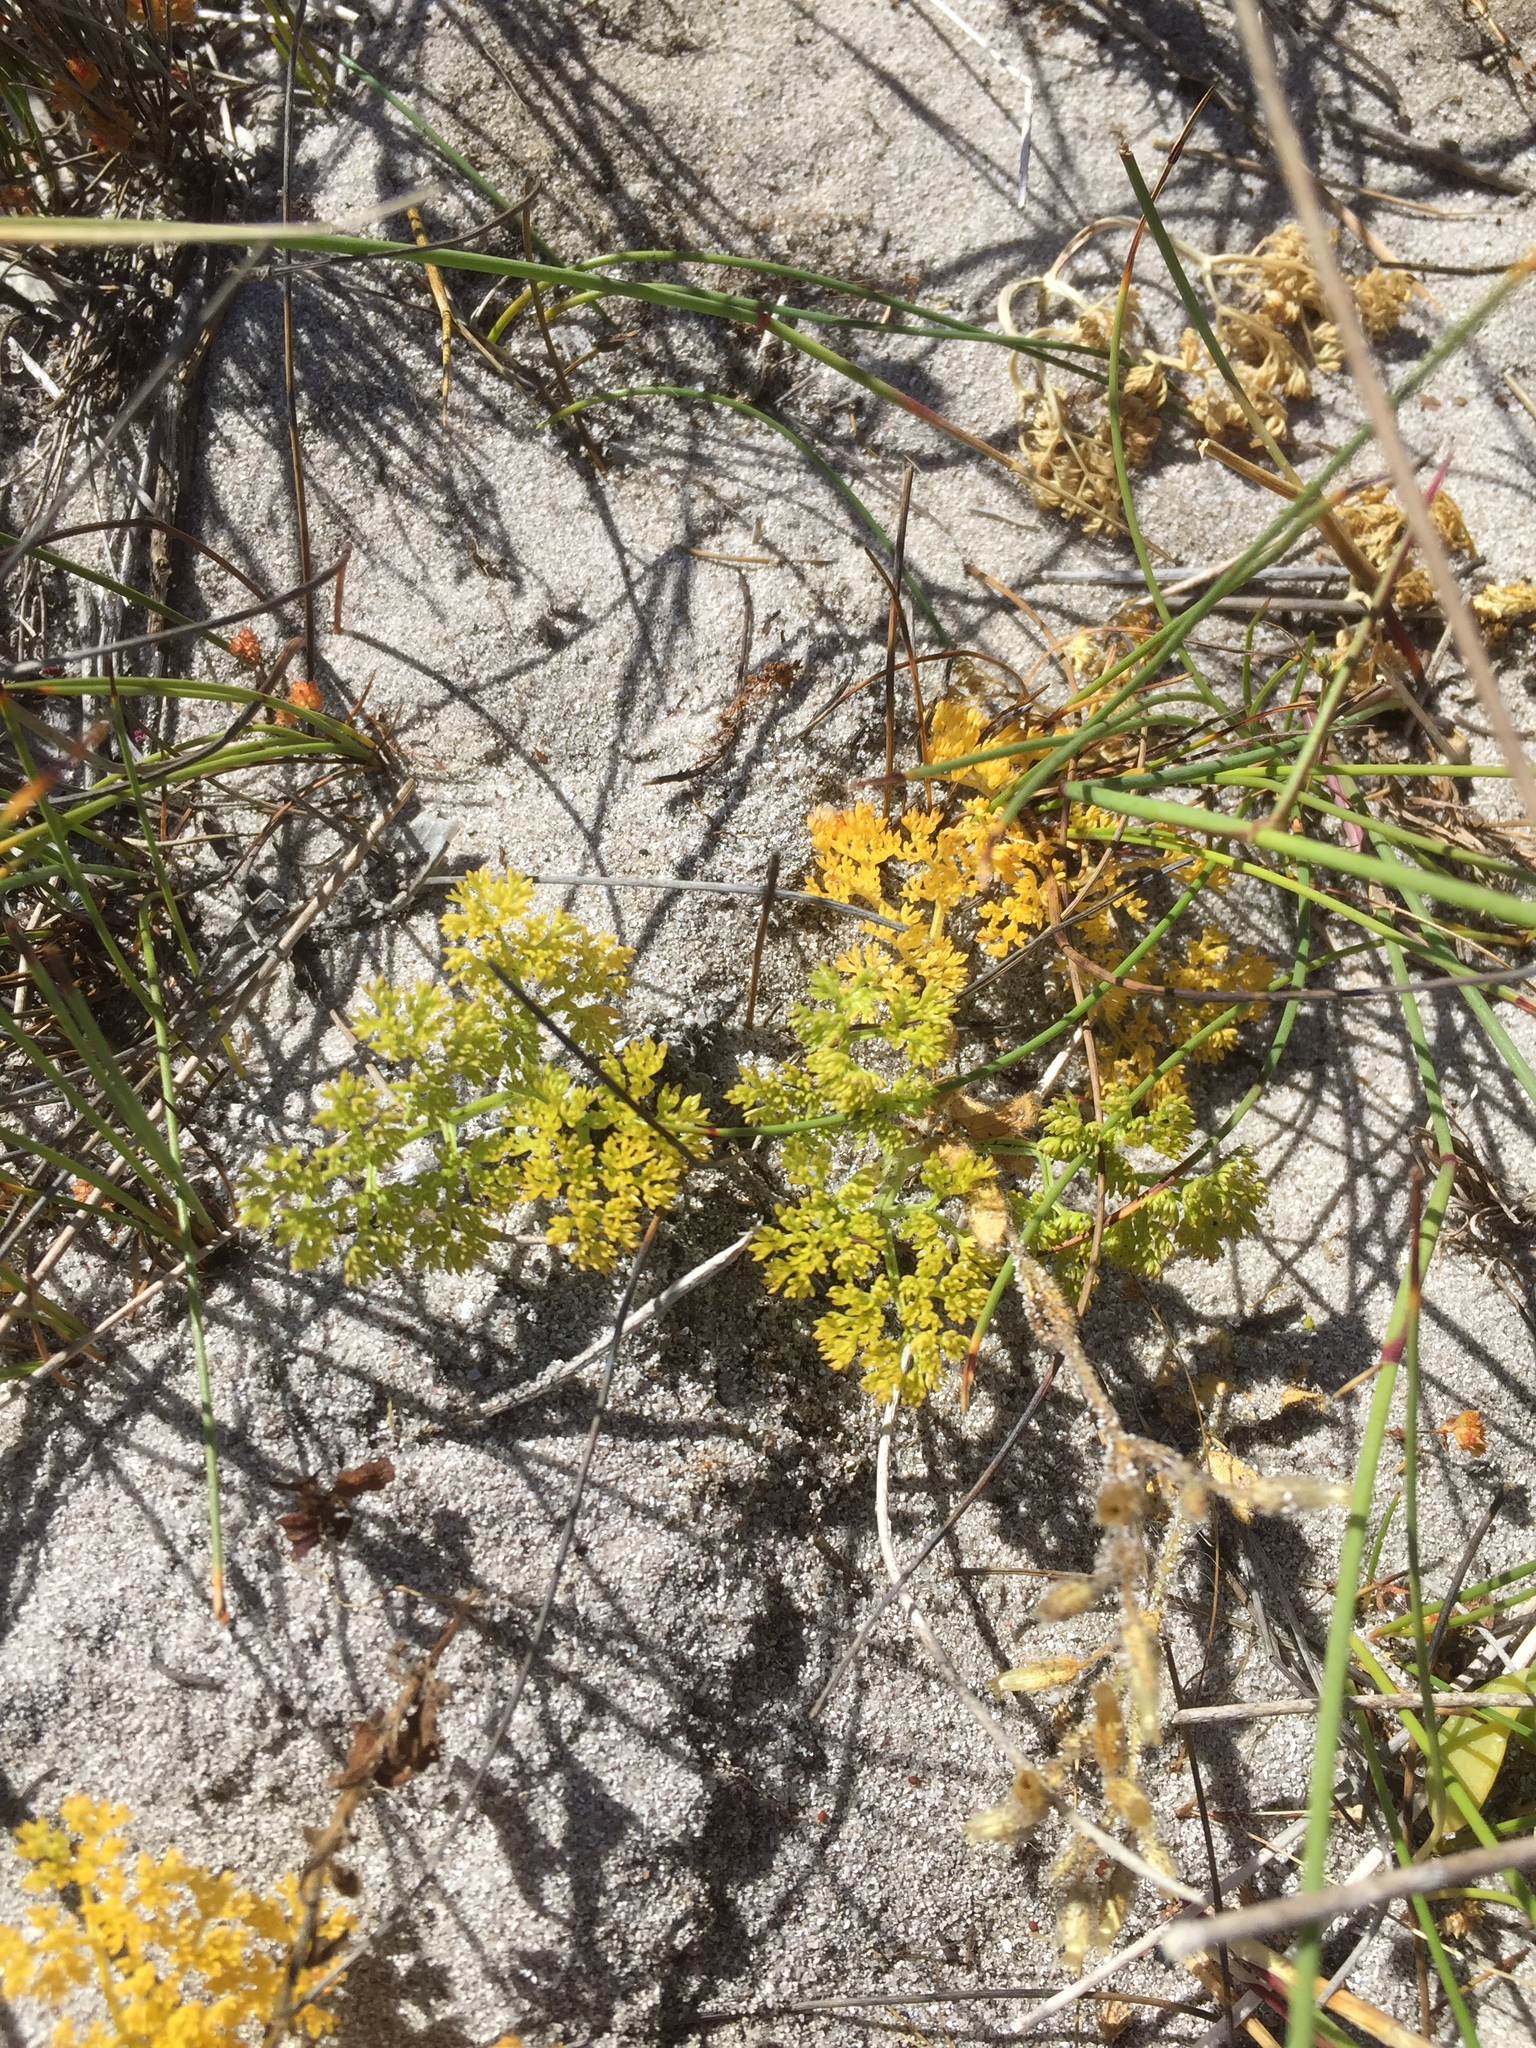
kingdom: Plantae
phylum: Tracheophyta
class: Magnoliopsida
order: Apiales
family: Apiaceae
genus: Annesorhiza
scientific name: Annesorhiza macrocarpa
